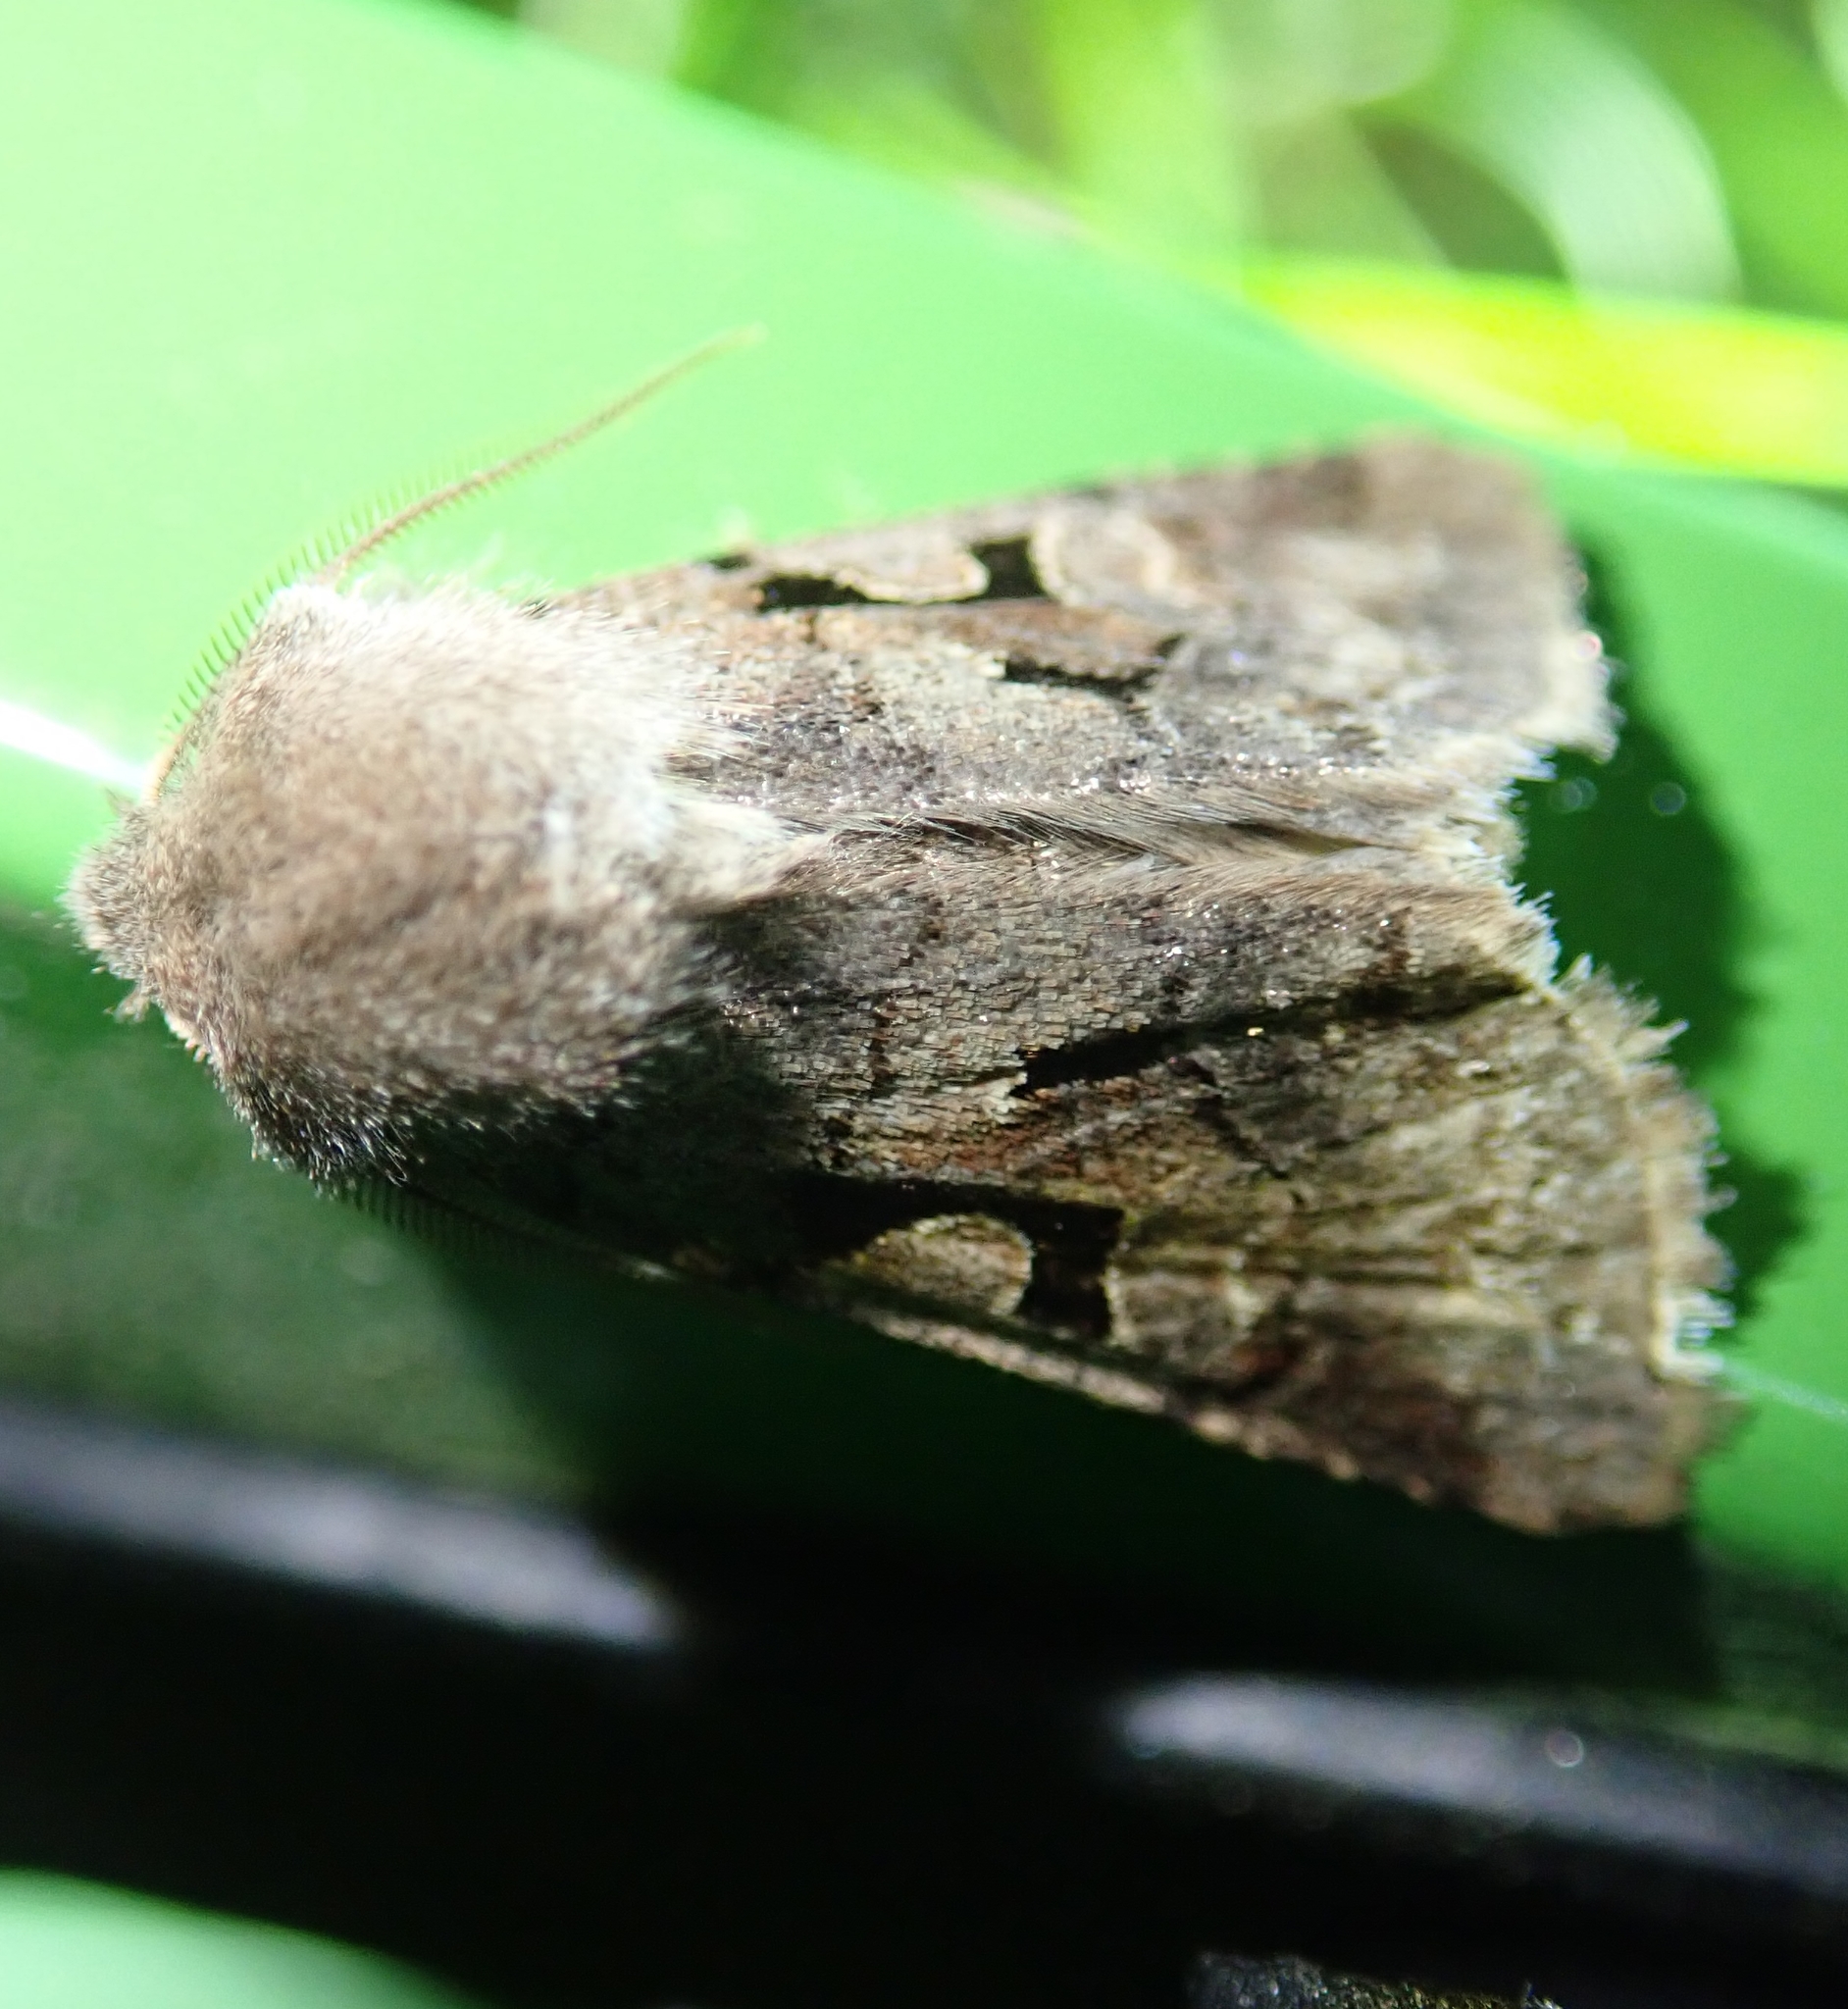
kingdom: Animalia
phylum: Arthropoda
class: Insecta
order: Lepidoptera
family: Noctuidae
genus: Orthosia
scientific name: Orthosia gothica
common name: Hebrew character
